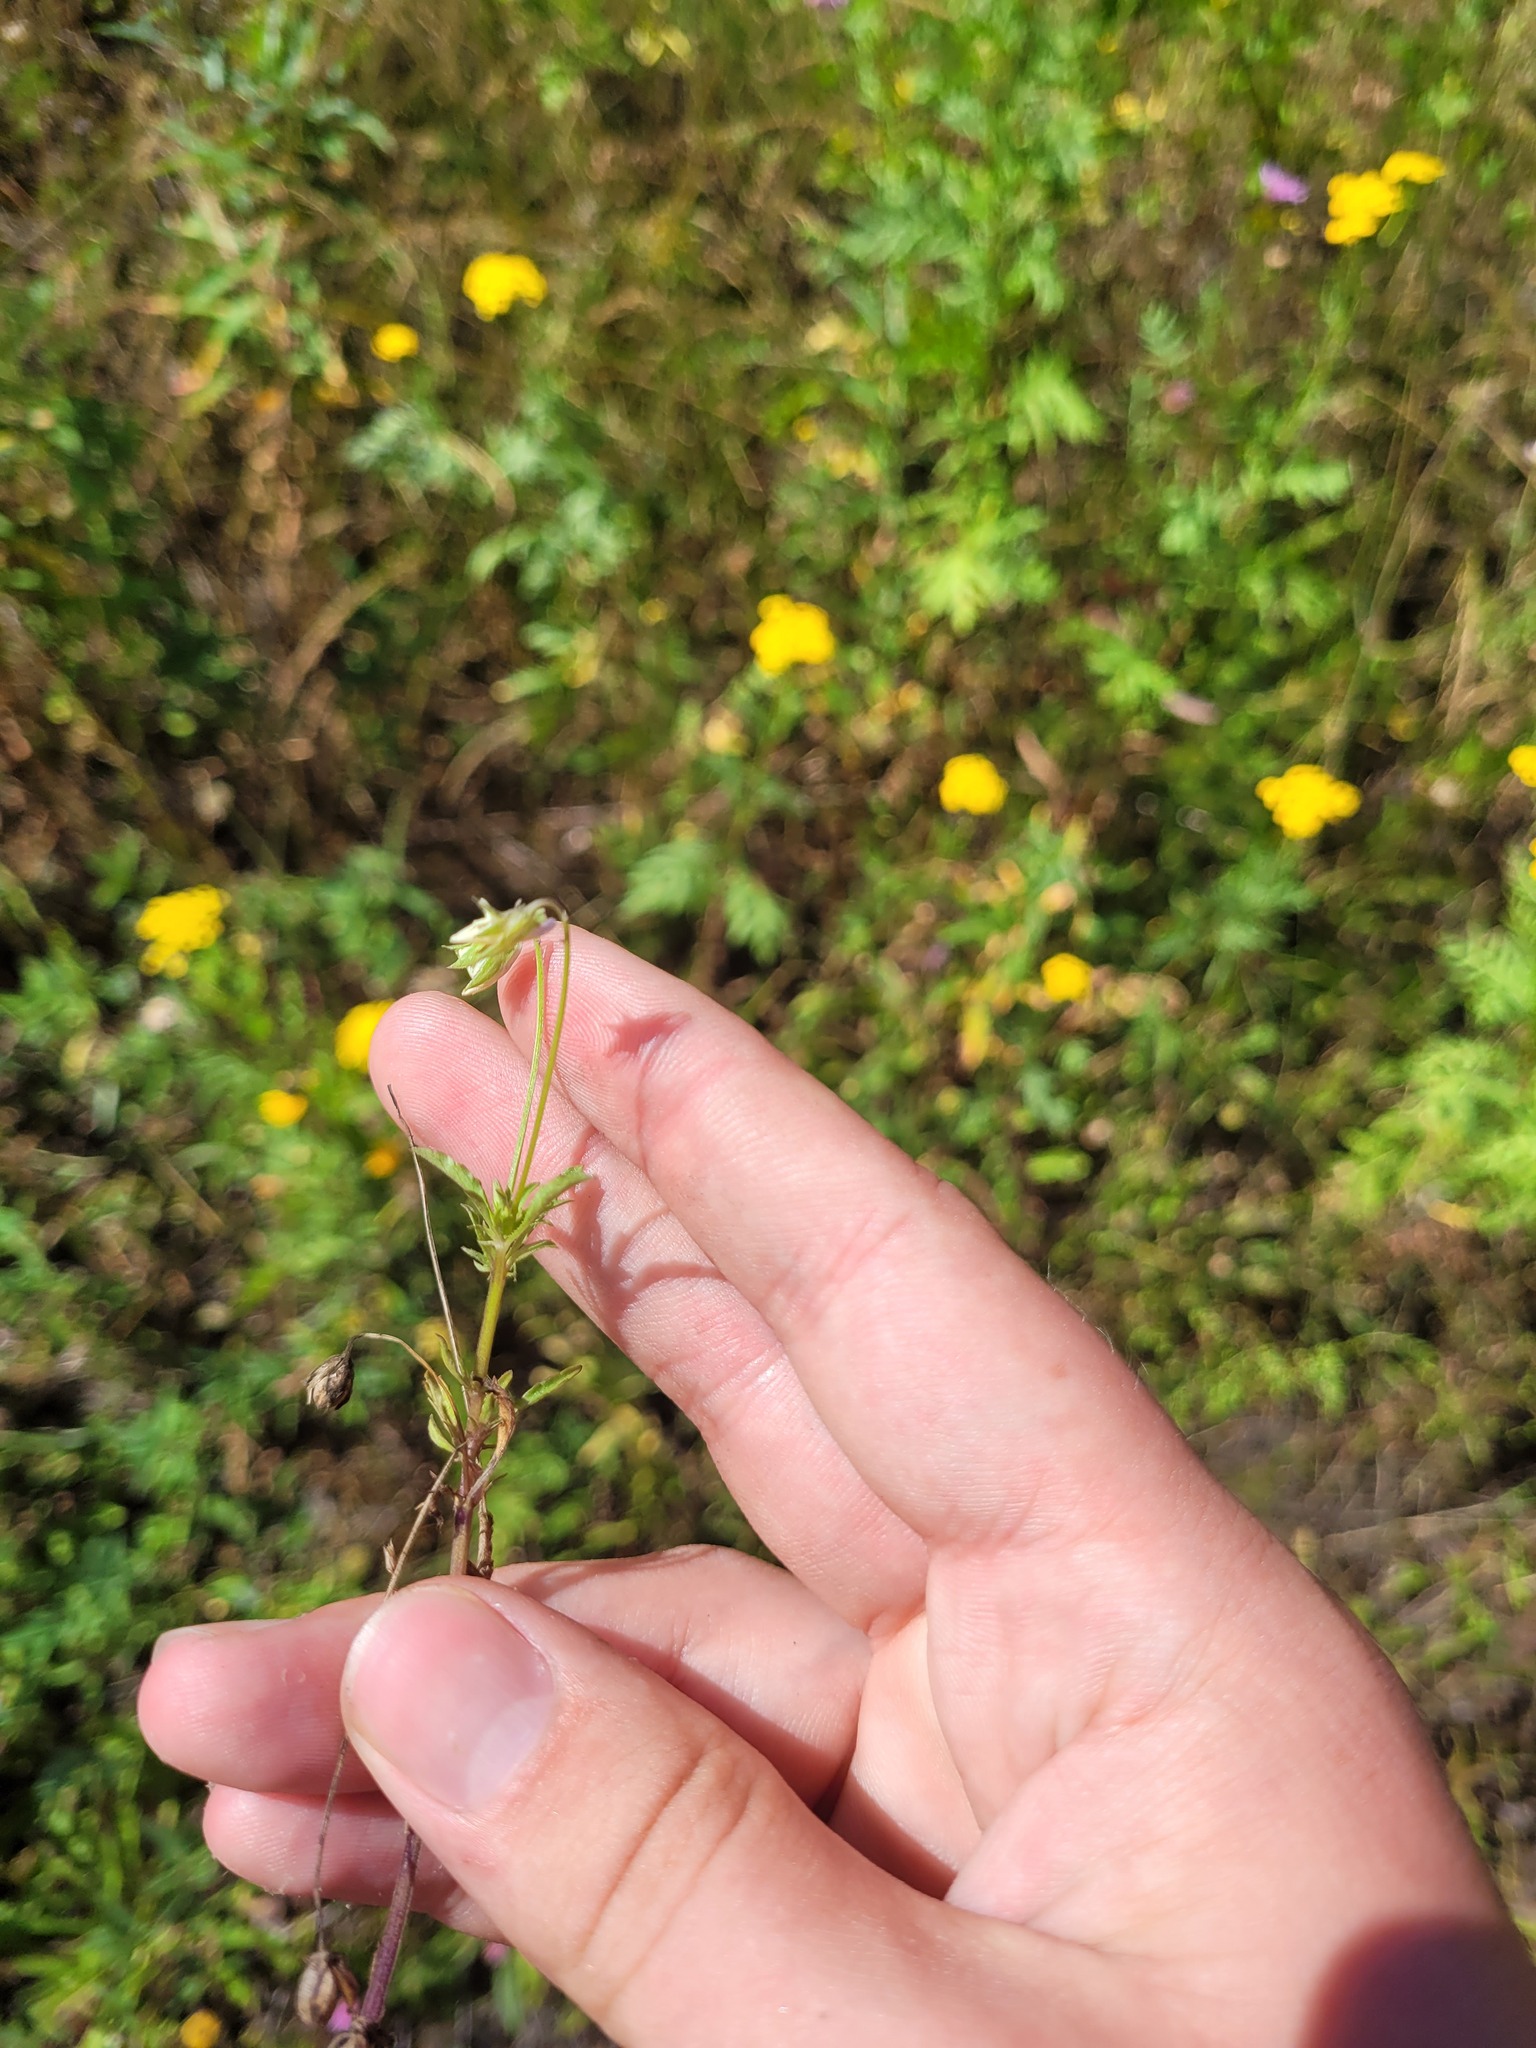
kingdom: Plantae
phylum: Tracheophyta
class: Magnoliopsida
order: Malpighiales
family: Violaceae
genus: Viola
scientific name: Viola arvensis
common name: Field pansy
